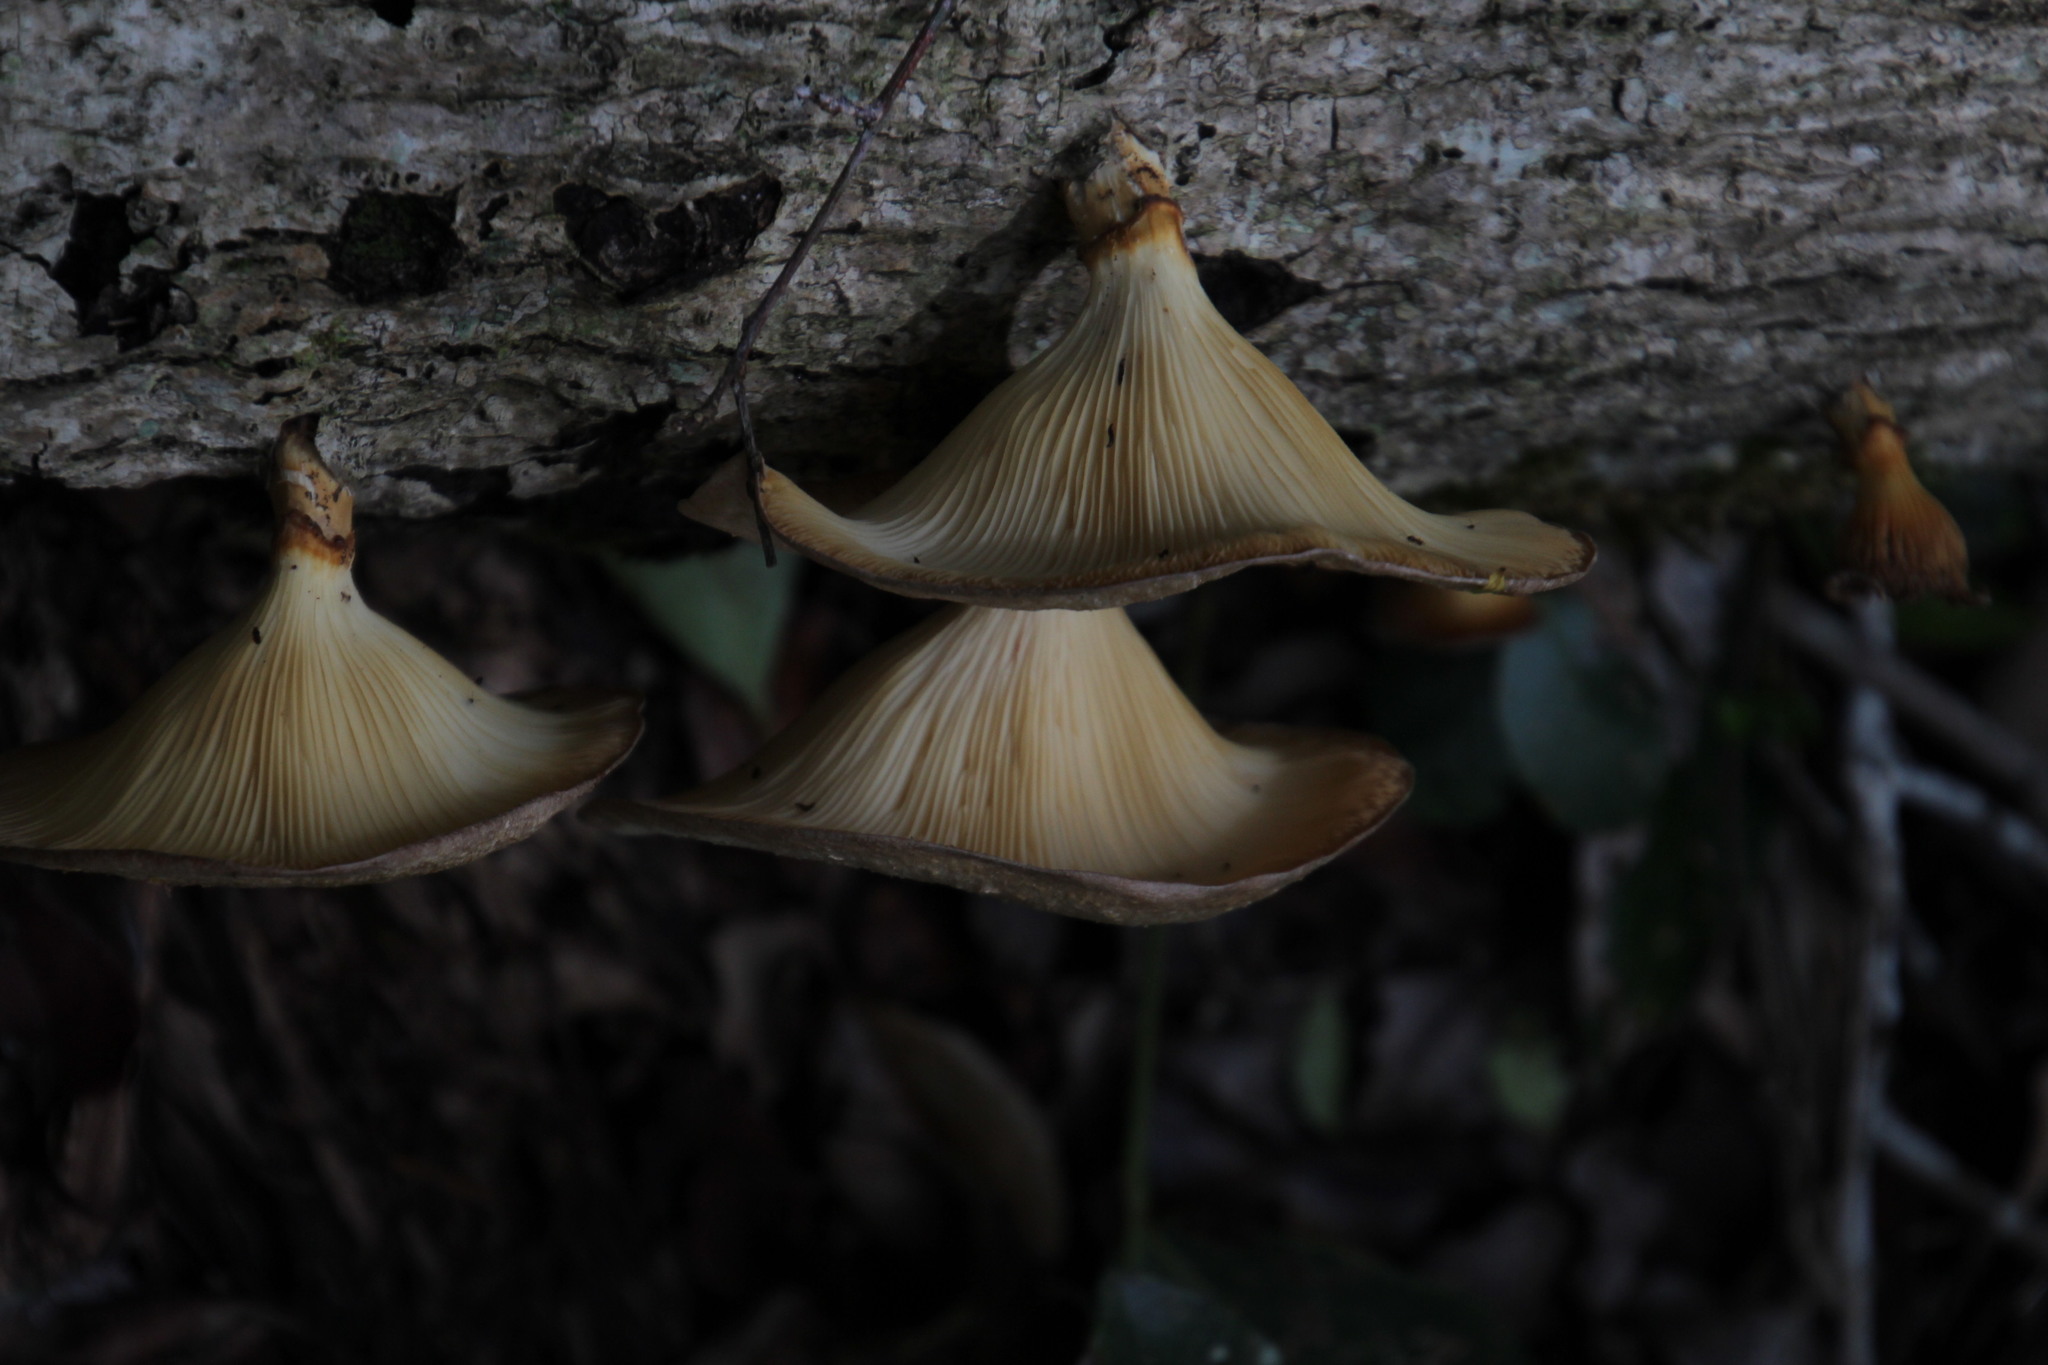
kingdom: Fungi
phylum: Basidiomycota
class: Agaricomycetes
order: Polyporales
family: Polyporaceae
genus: Lentinus
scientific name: Lentinus sajor-caju
